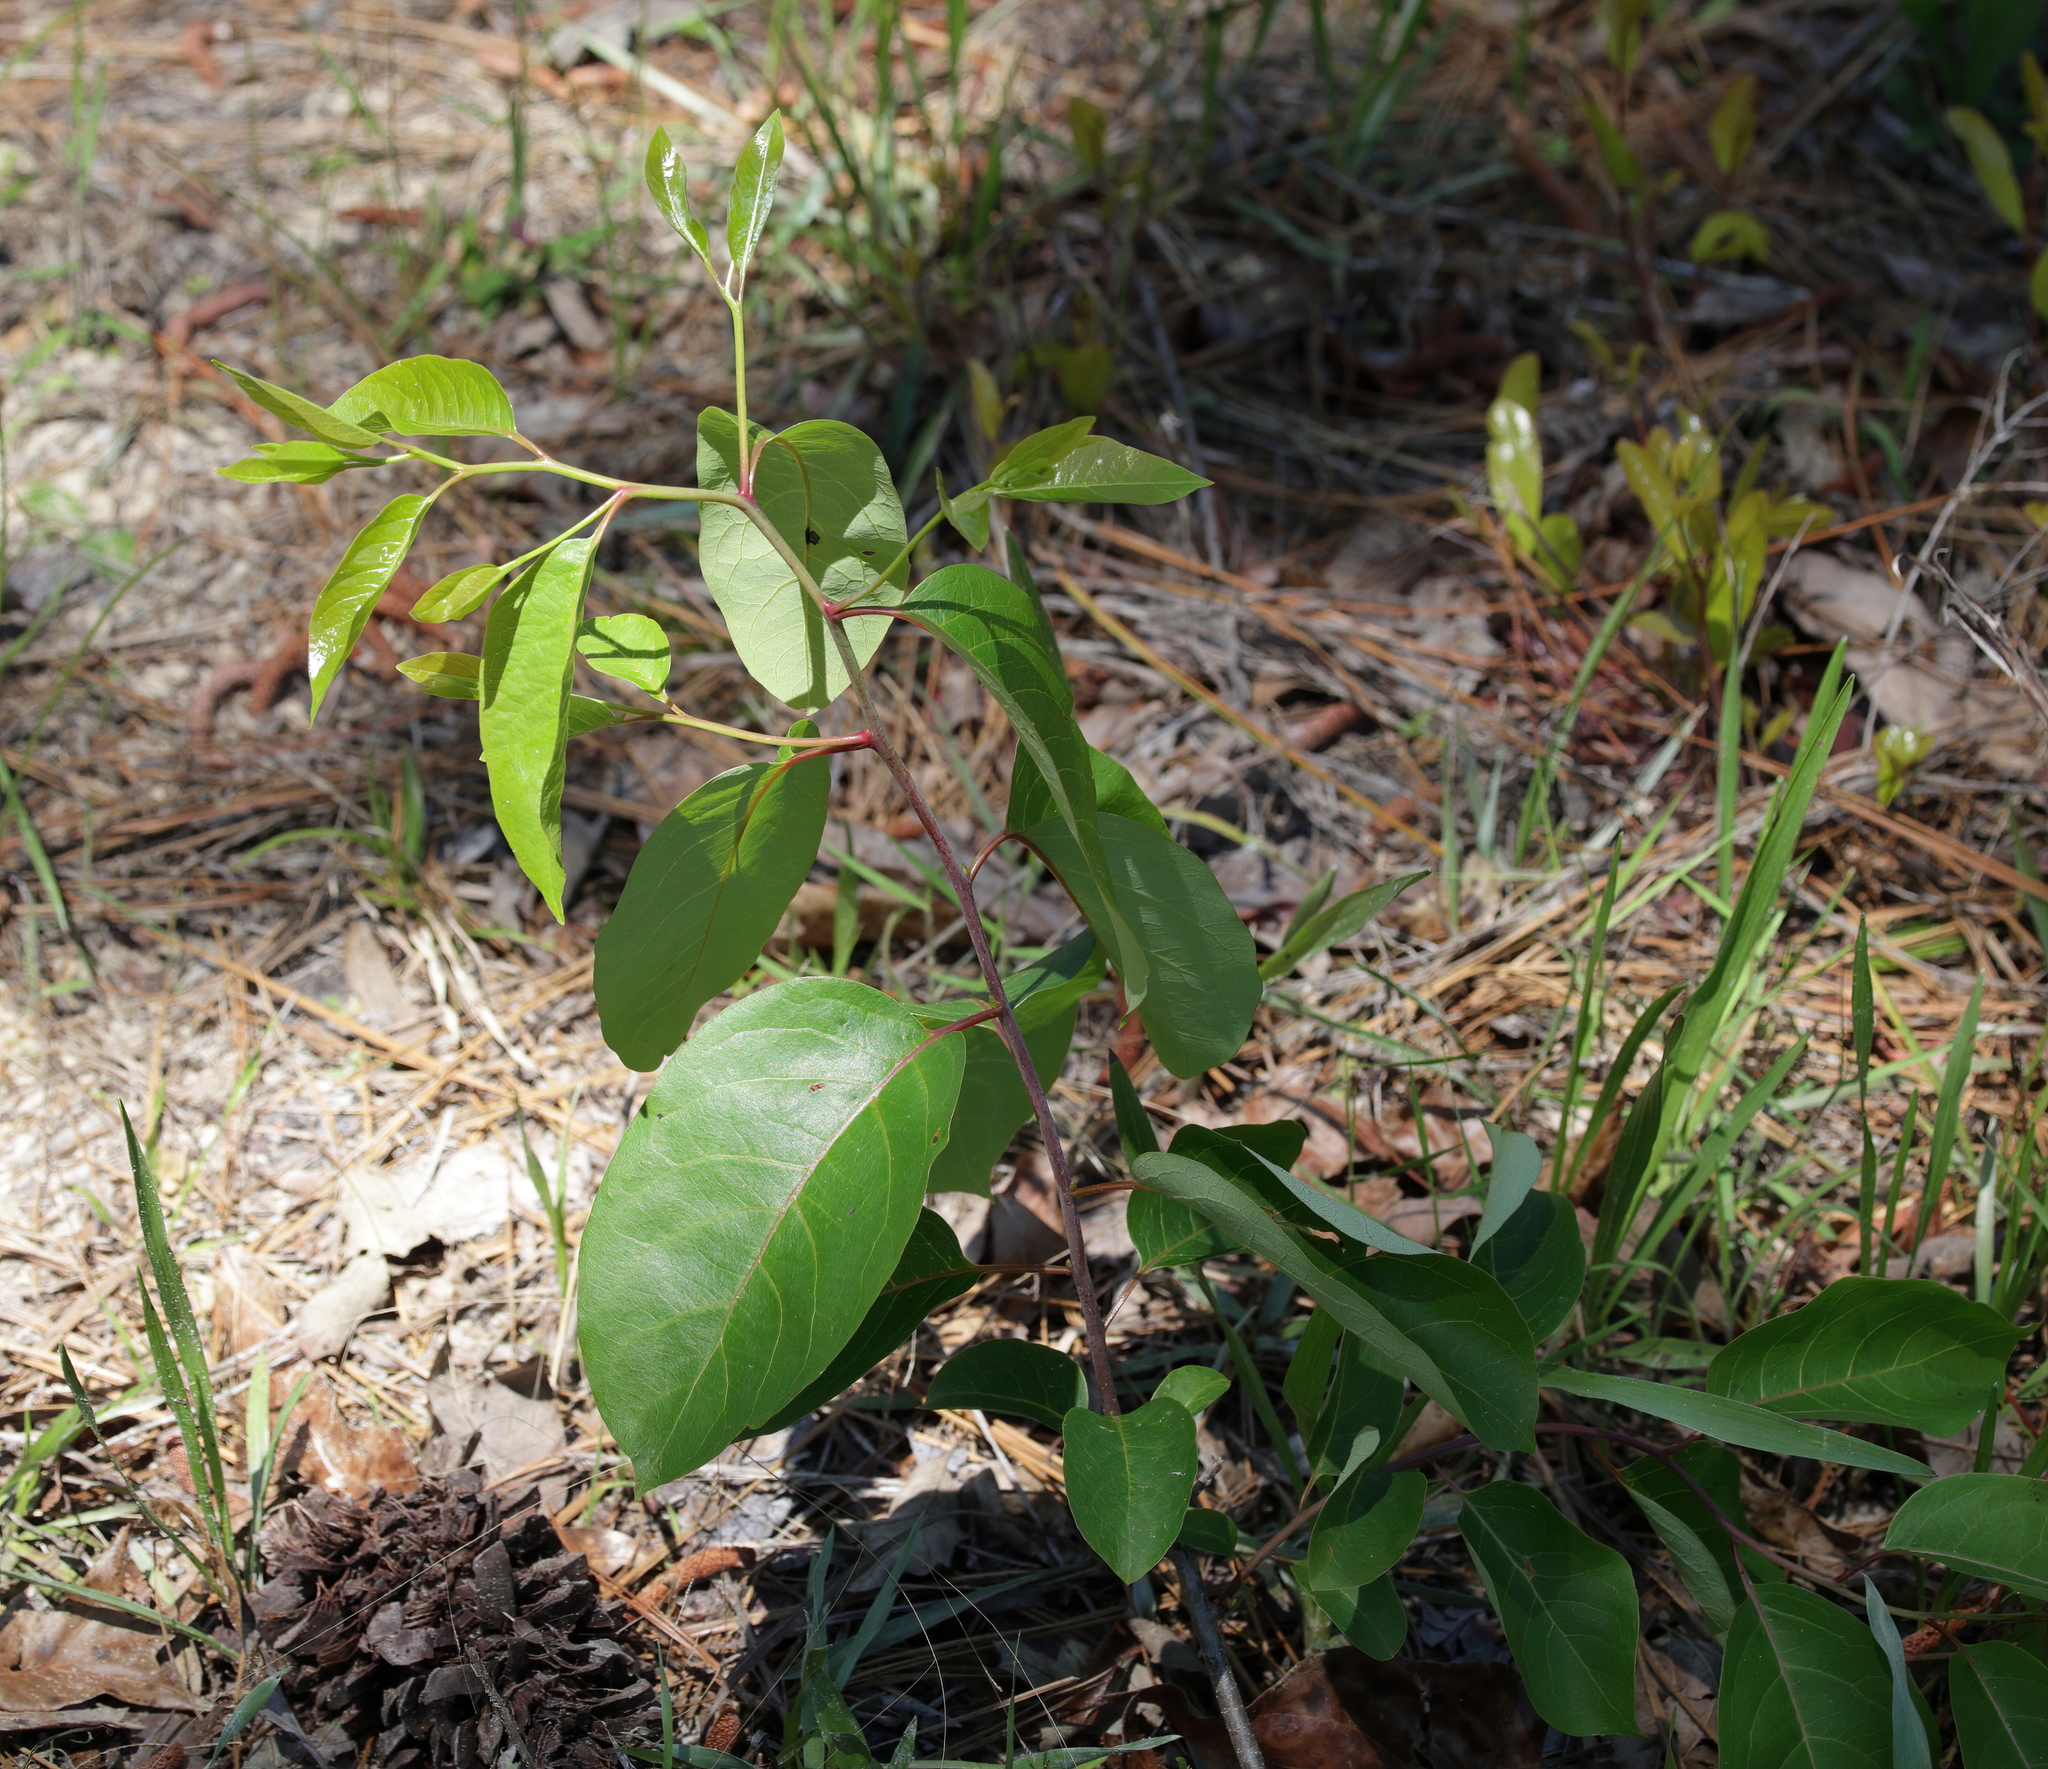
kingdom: Plantae
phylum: Tracheophyta
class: Magnoliopsida
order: Ericales
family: Ebenaceae
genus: Diospyros
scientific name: Diospyros virginiana
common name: Persimmon
